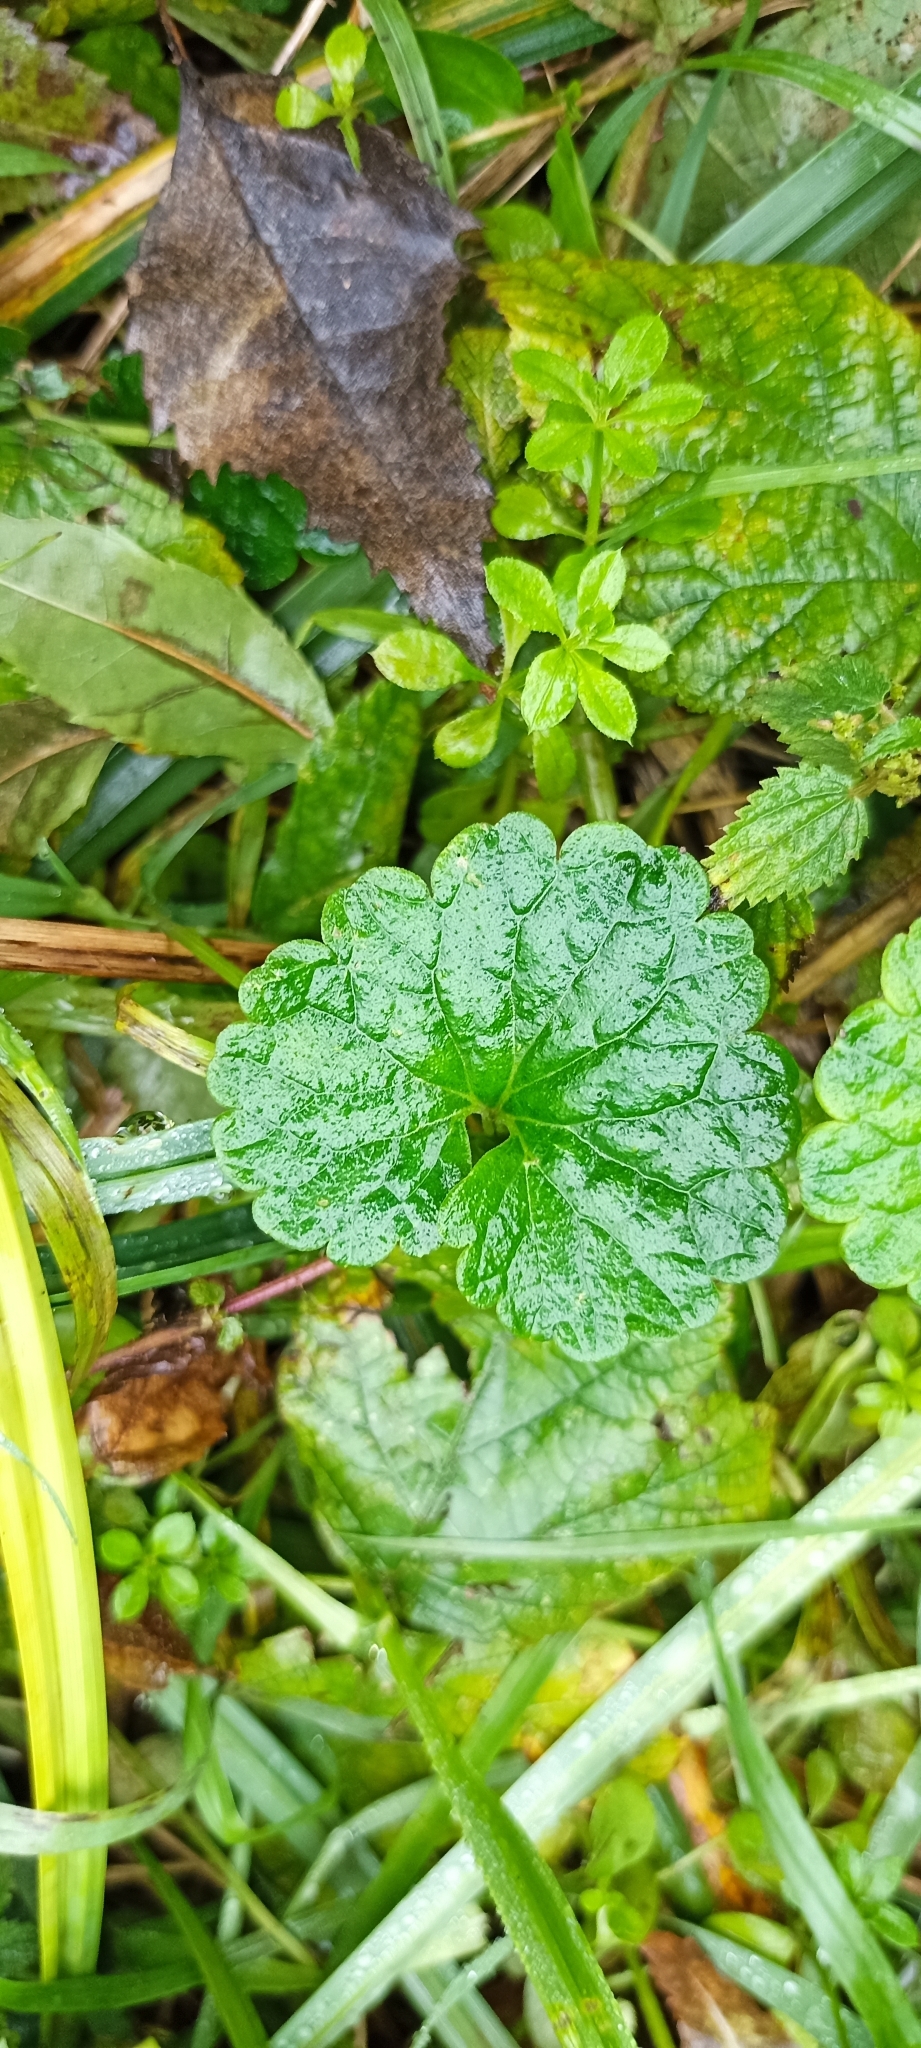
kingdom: Plantae
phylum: Tracheophyta
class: Magnoliopsida
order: Lamiales
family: Lamiaceae
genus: Glechoma
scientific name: Glechoma hederacea
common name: Ground ivy
